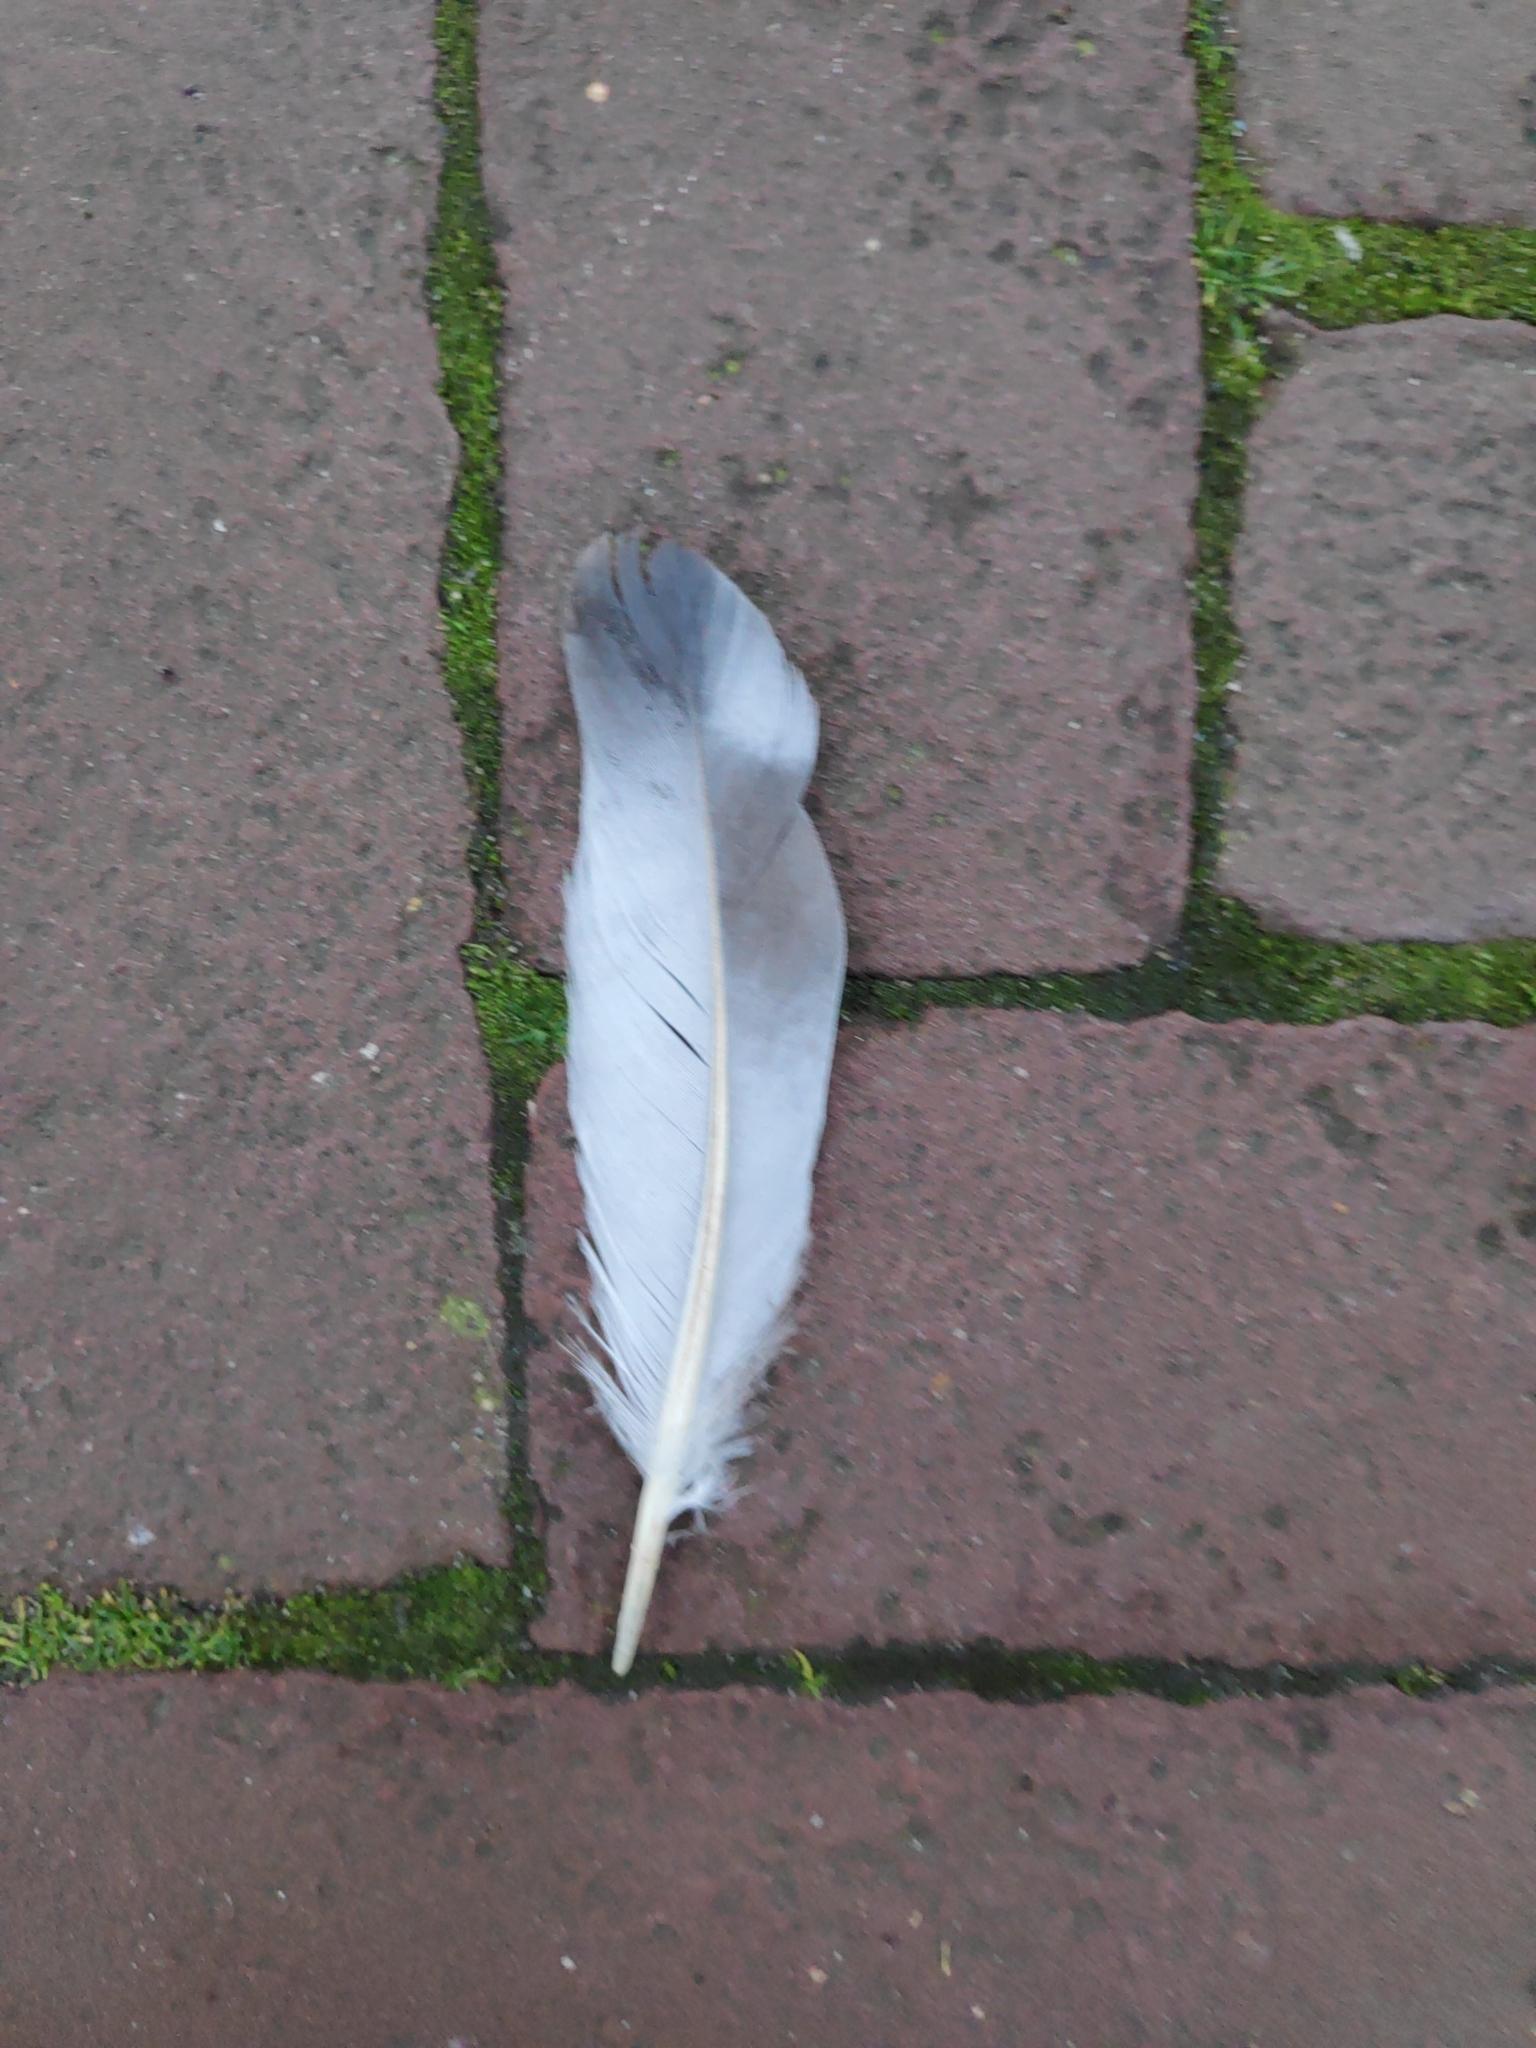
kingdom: Animalia
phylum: Chordata
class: Aves
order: Columbiformes
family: Columbidae
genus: Columba
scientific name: Columba livia
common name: Rock pigeon
